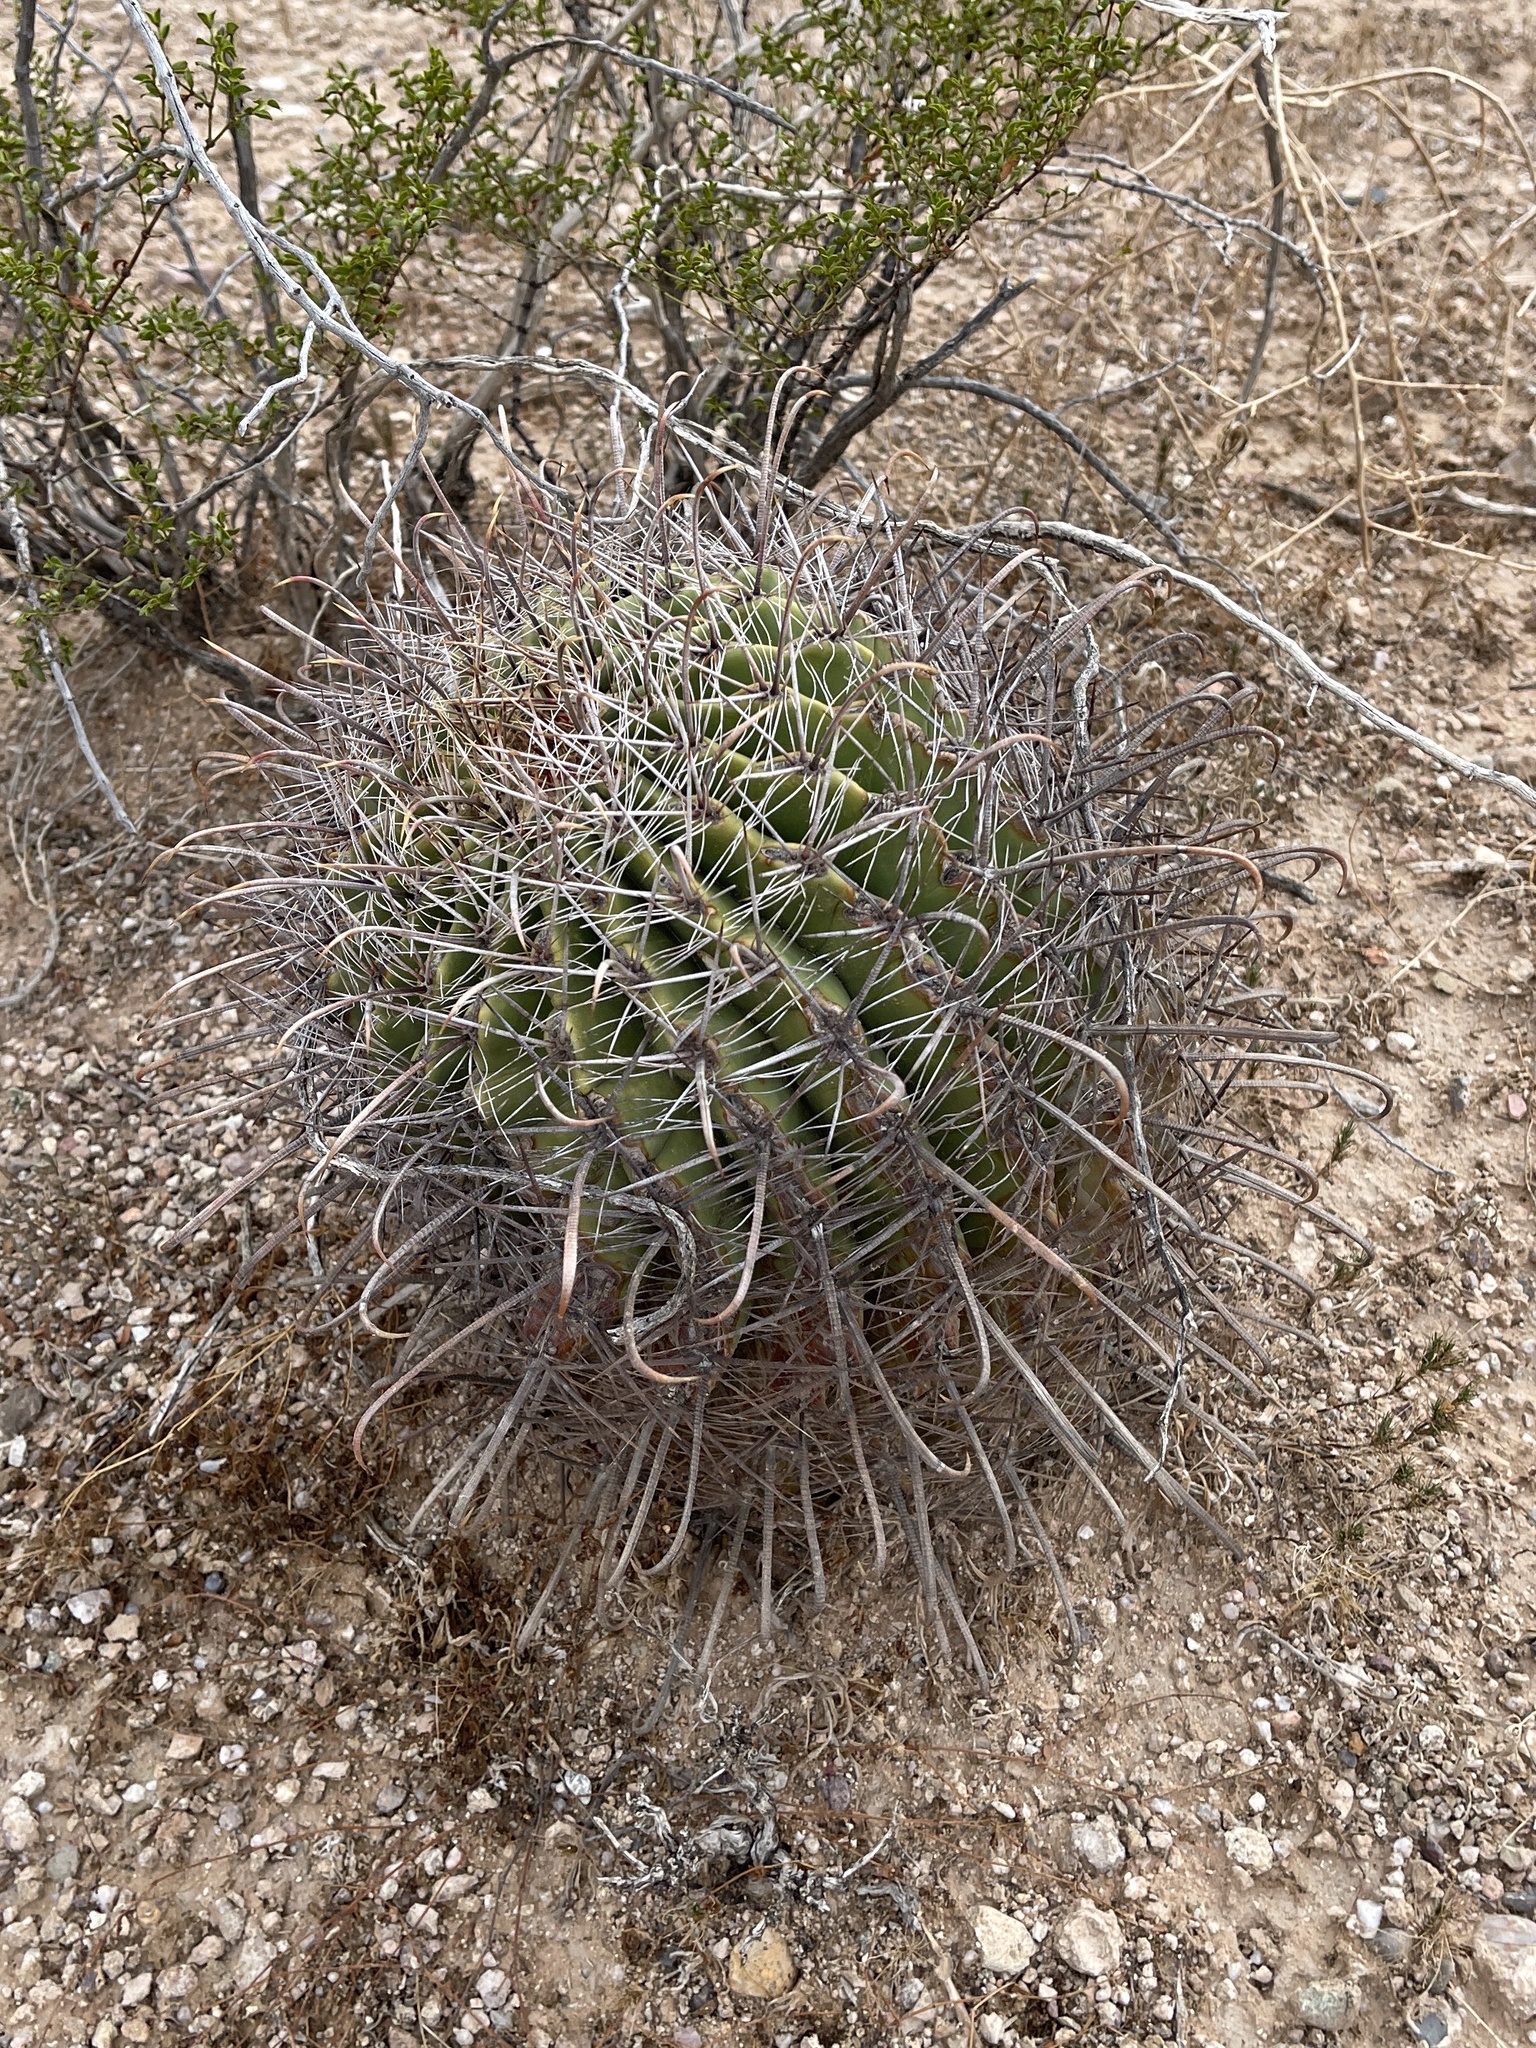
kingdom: Plantae
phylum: Tracheophyta
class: Magnoliopsida
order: Caryophyllales
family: Cactaceae
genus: Ferocactus
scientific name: Ferocactus wislizeni
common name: Candy barrel cactus
